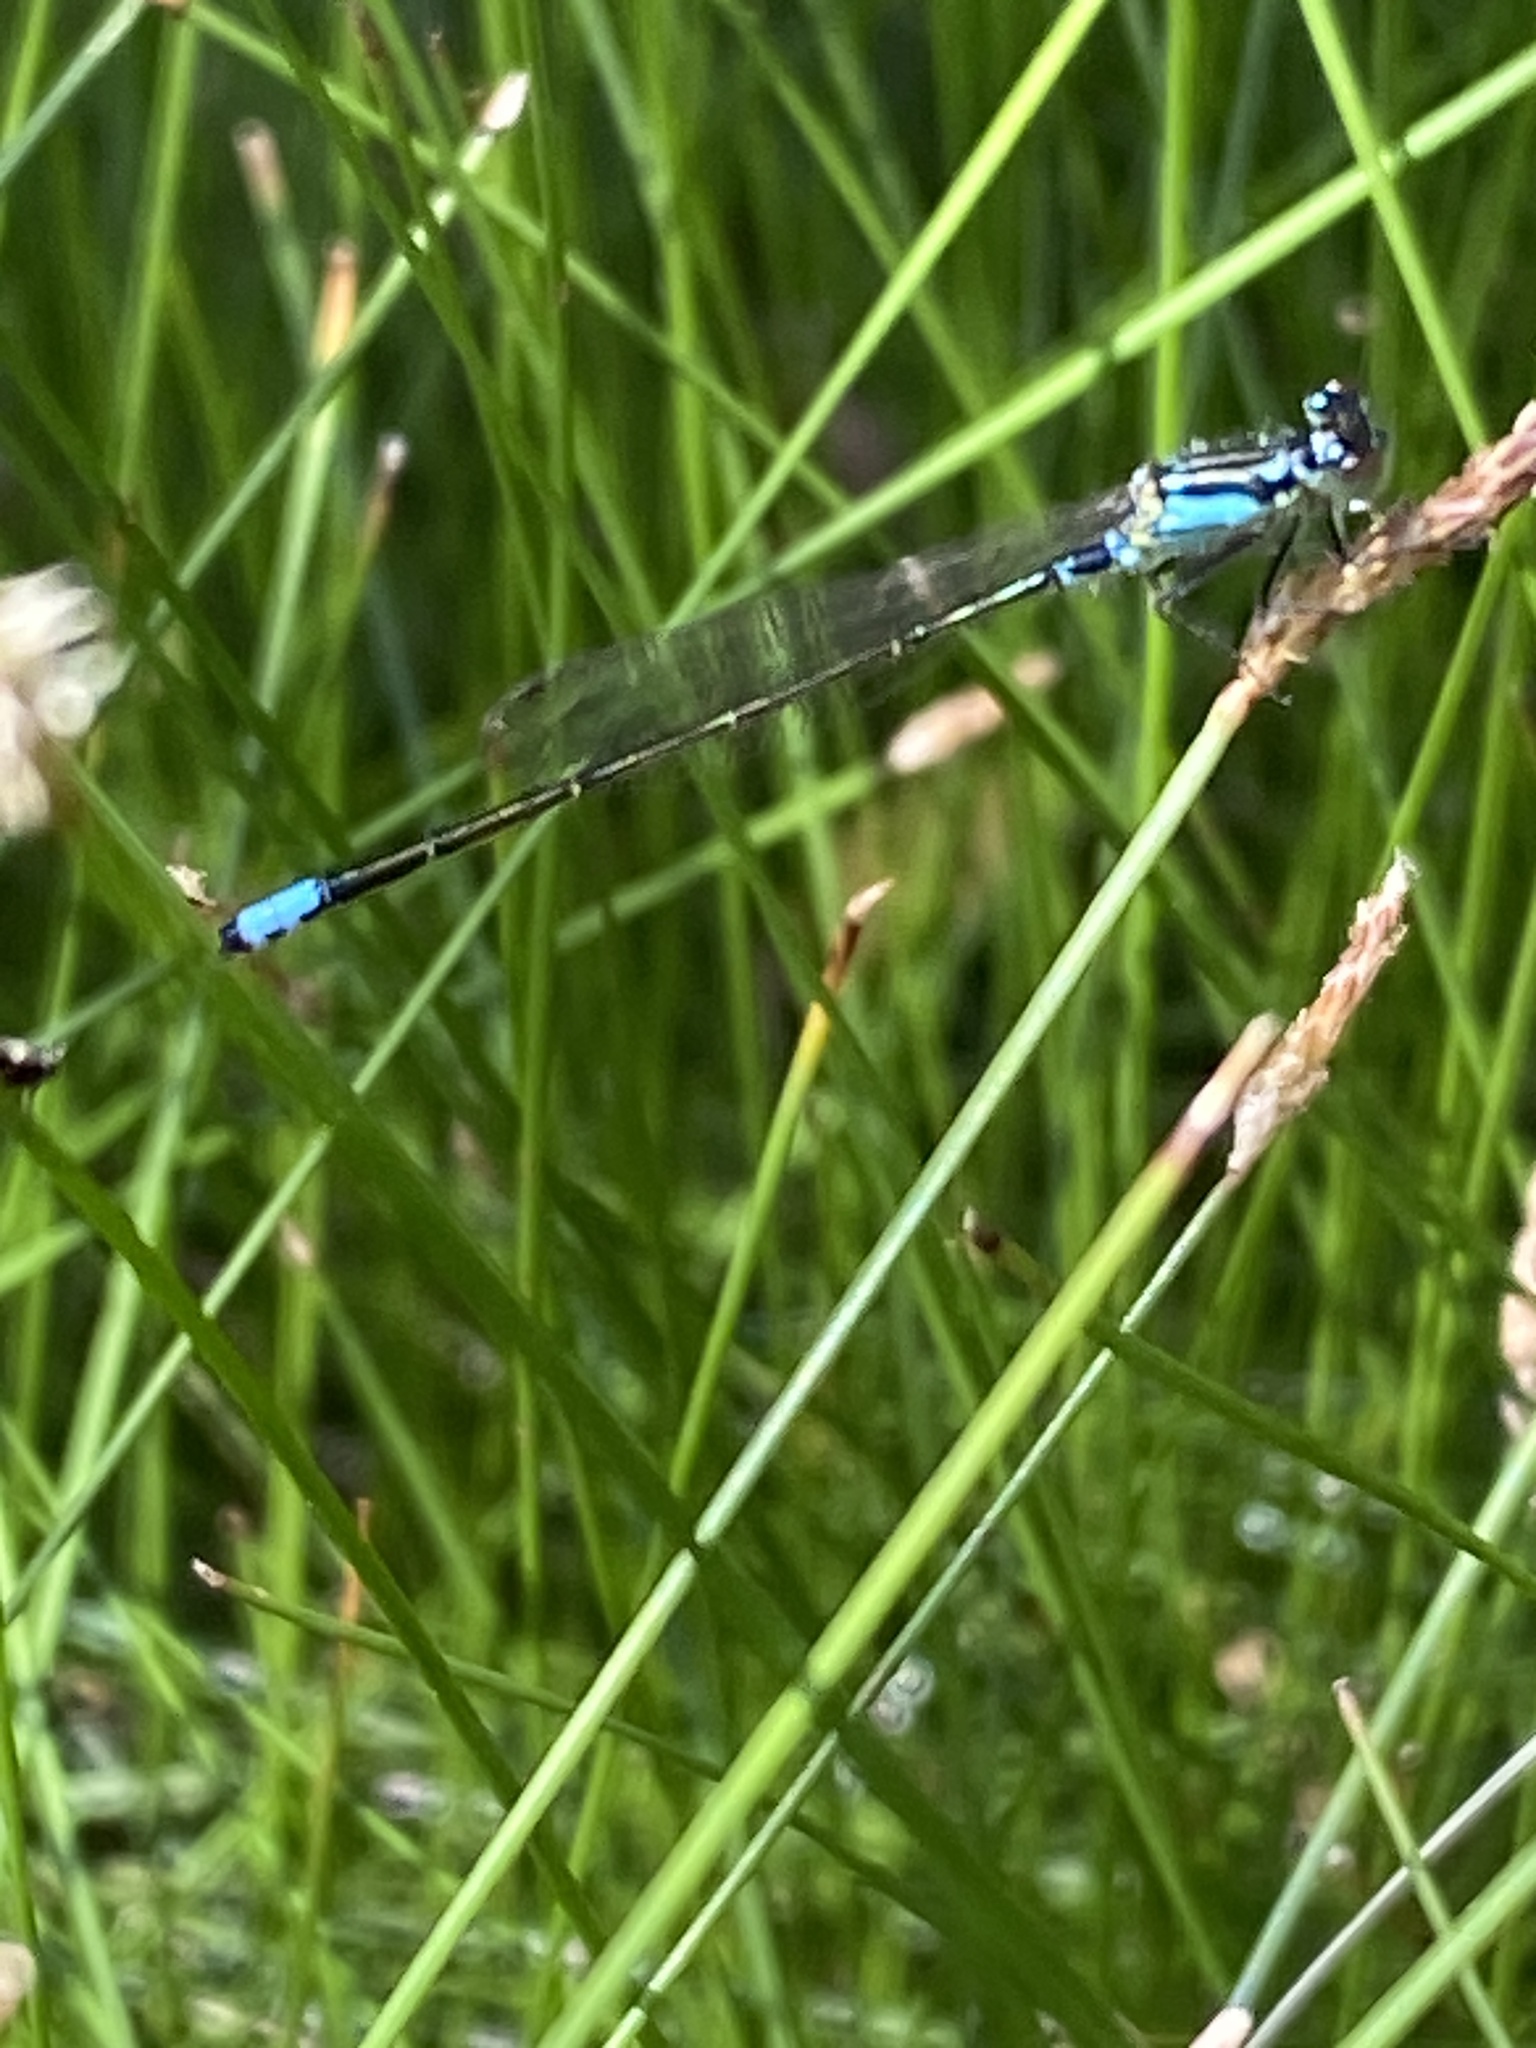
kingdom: Animalia
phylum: Arthropoda
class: Insecta
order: Odonata
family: Coenagrionidae
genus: Ischnura
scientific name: Ischnura damula
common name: Plains forktail
